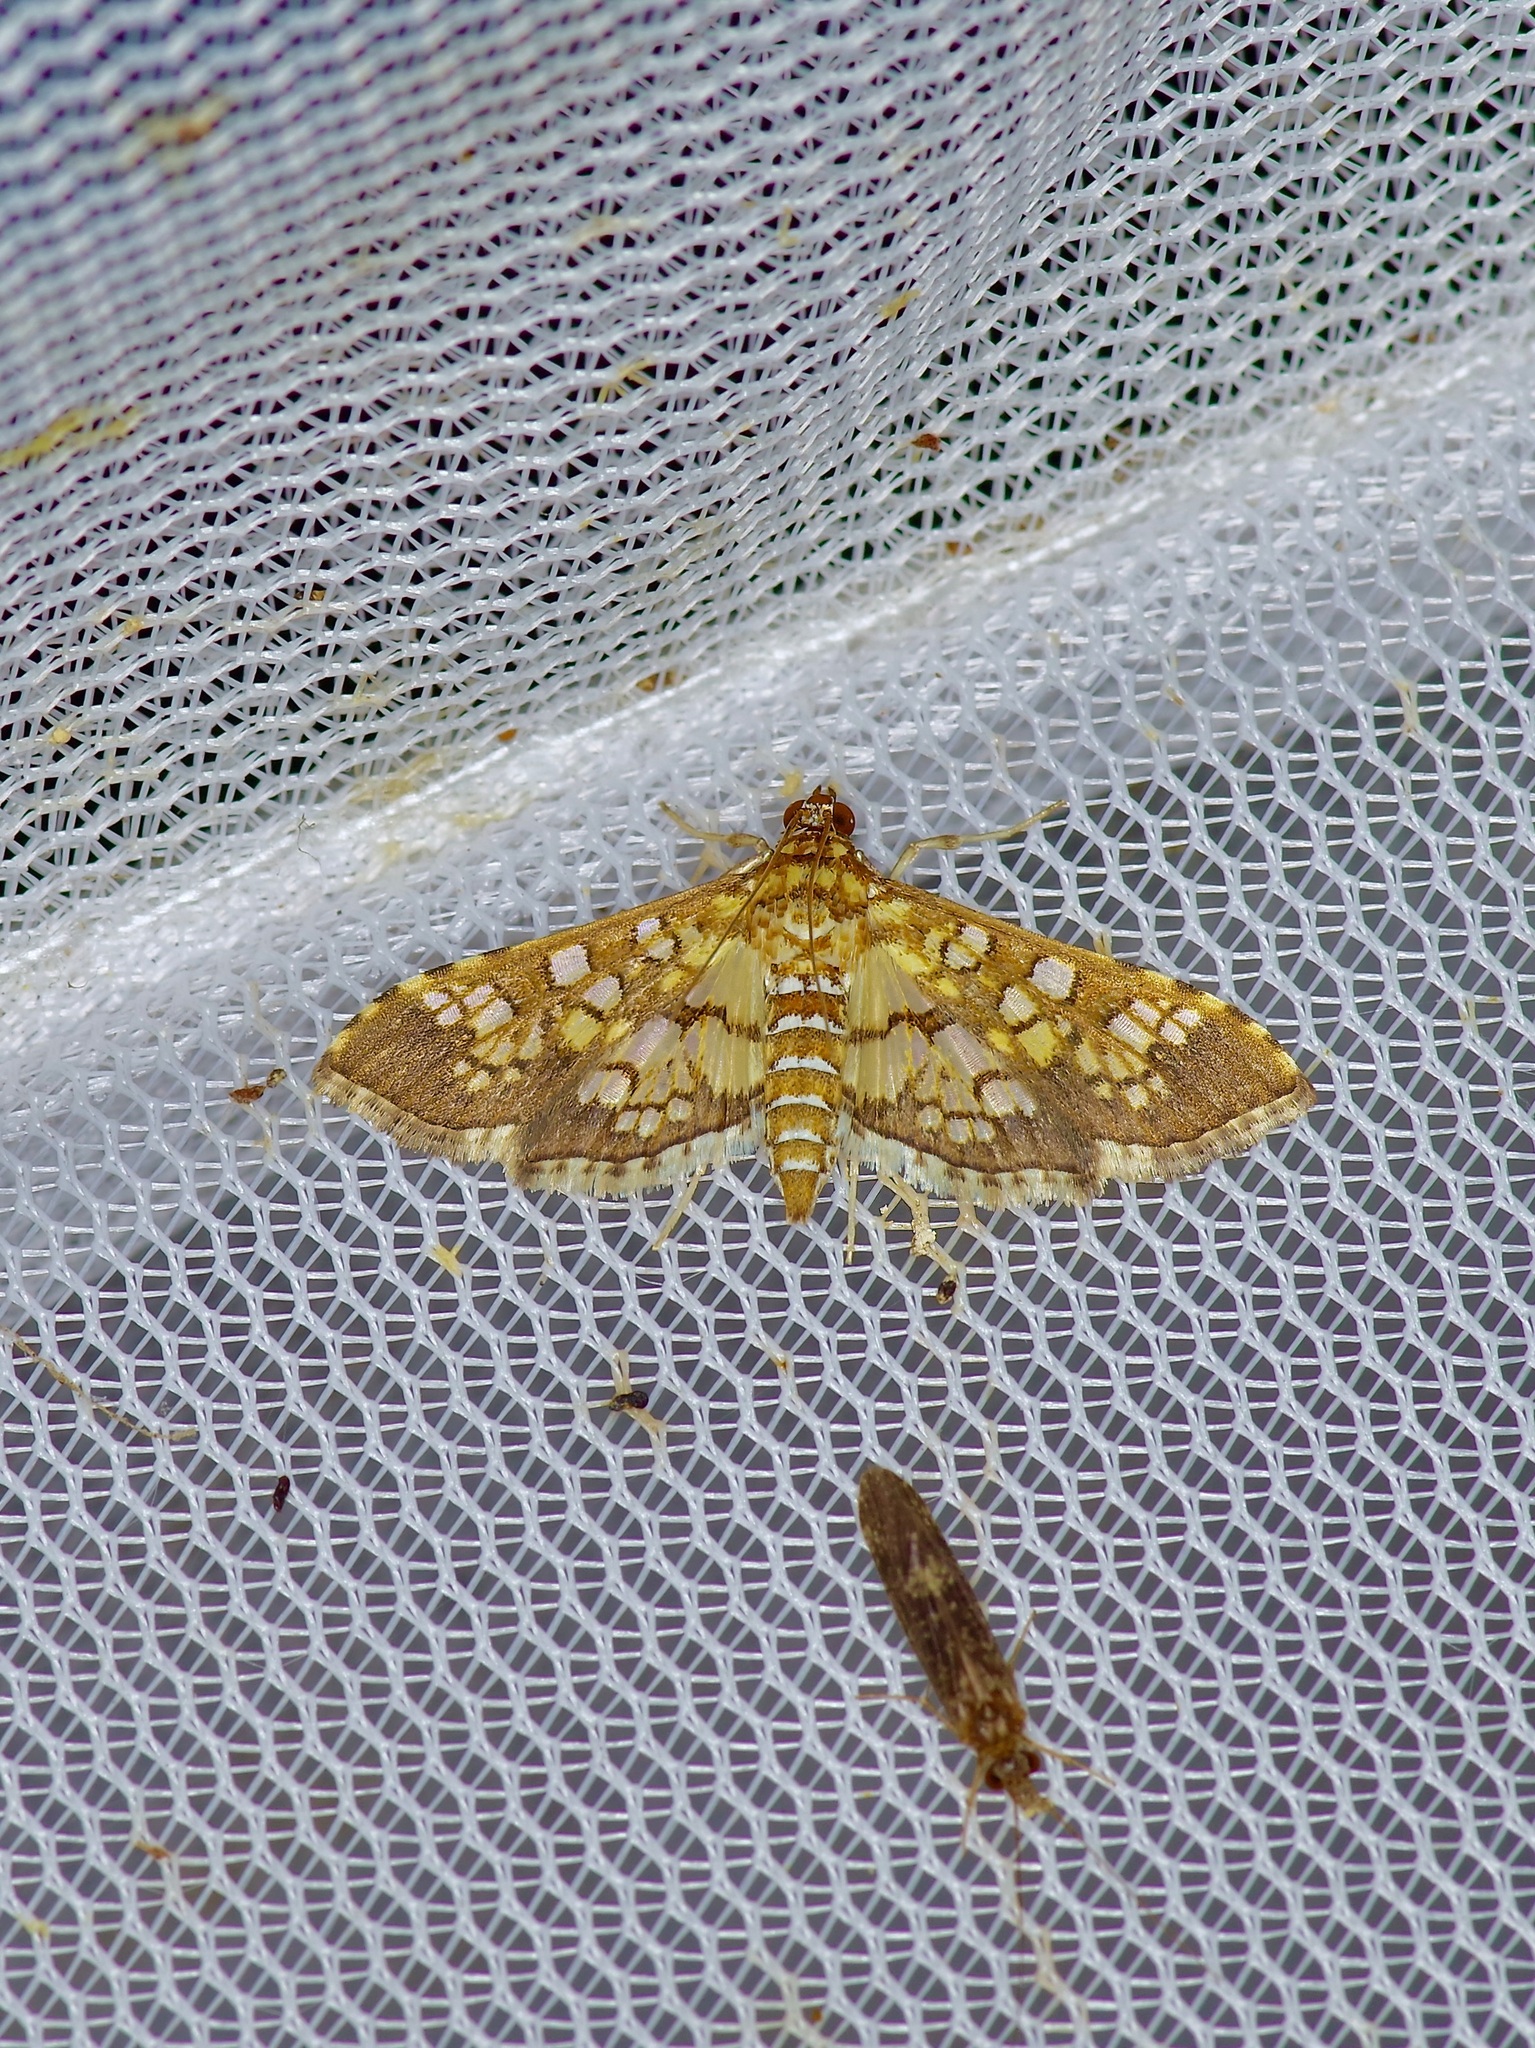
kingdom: Animalia
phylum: Arthropoda
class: Insecta
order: Lepidoptera
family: Crambidae
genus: Samea
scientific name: Samea ecclesialis
